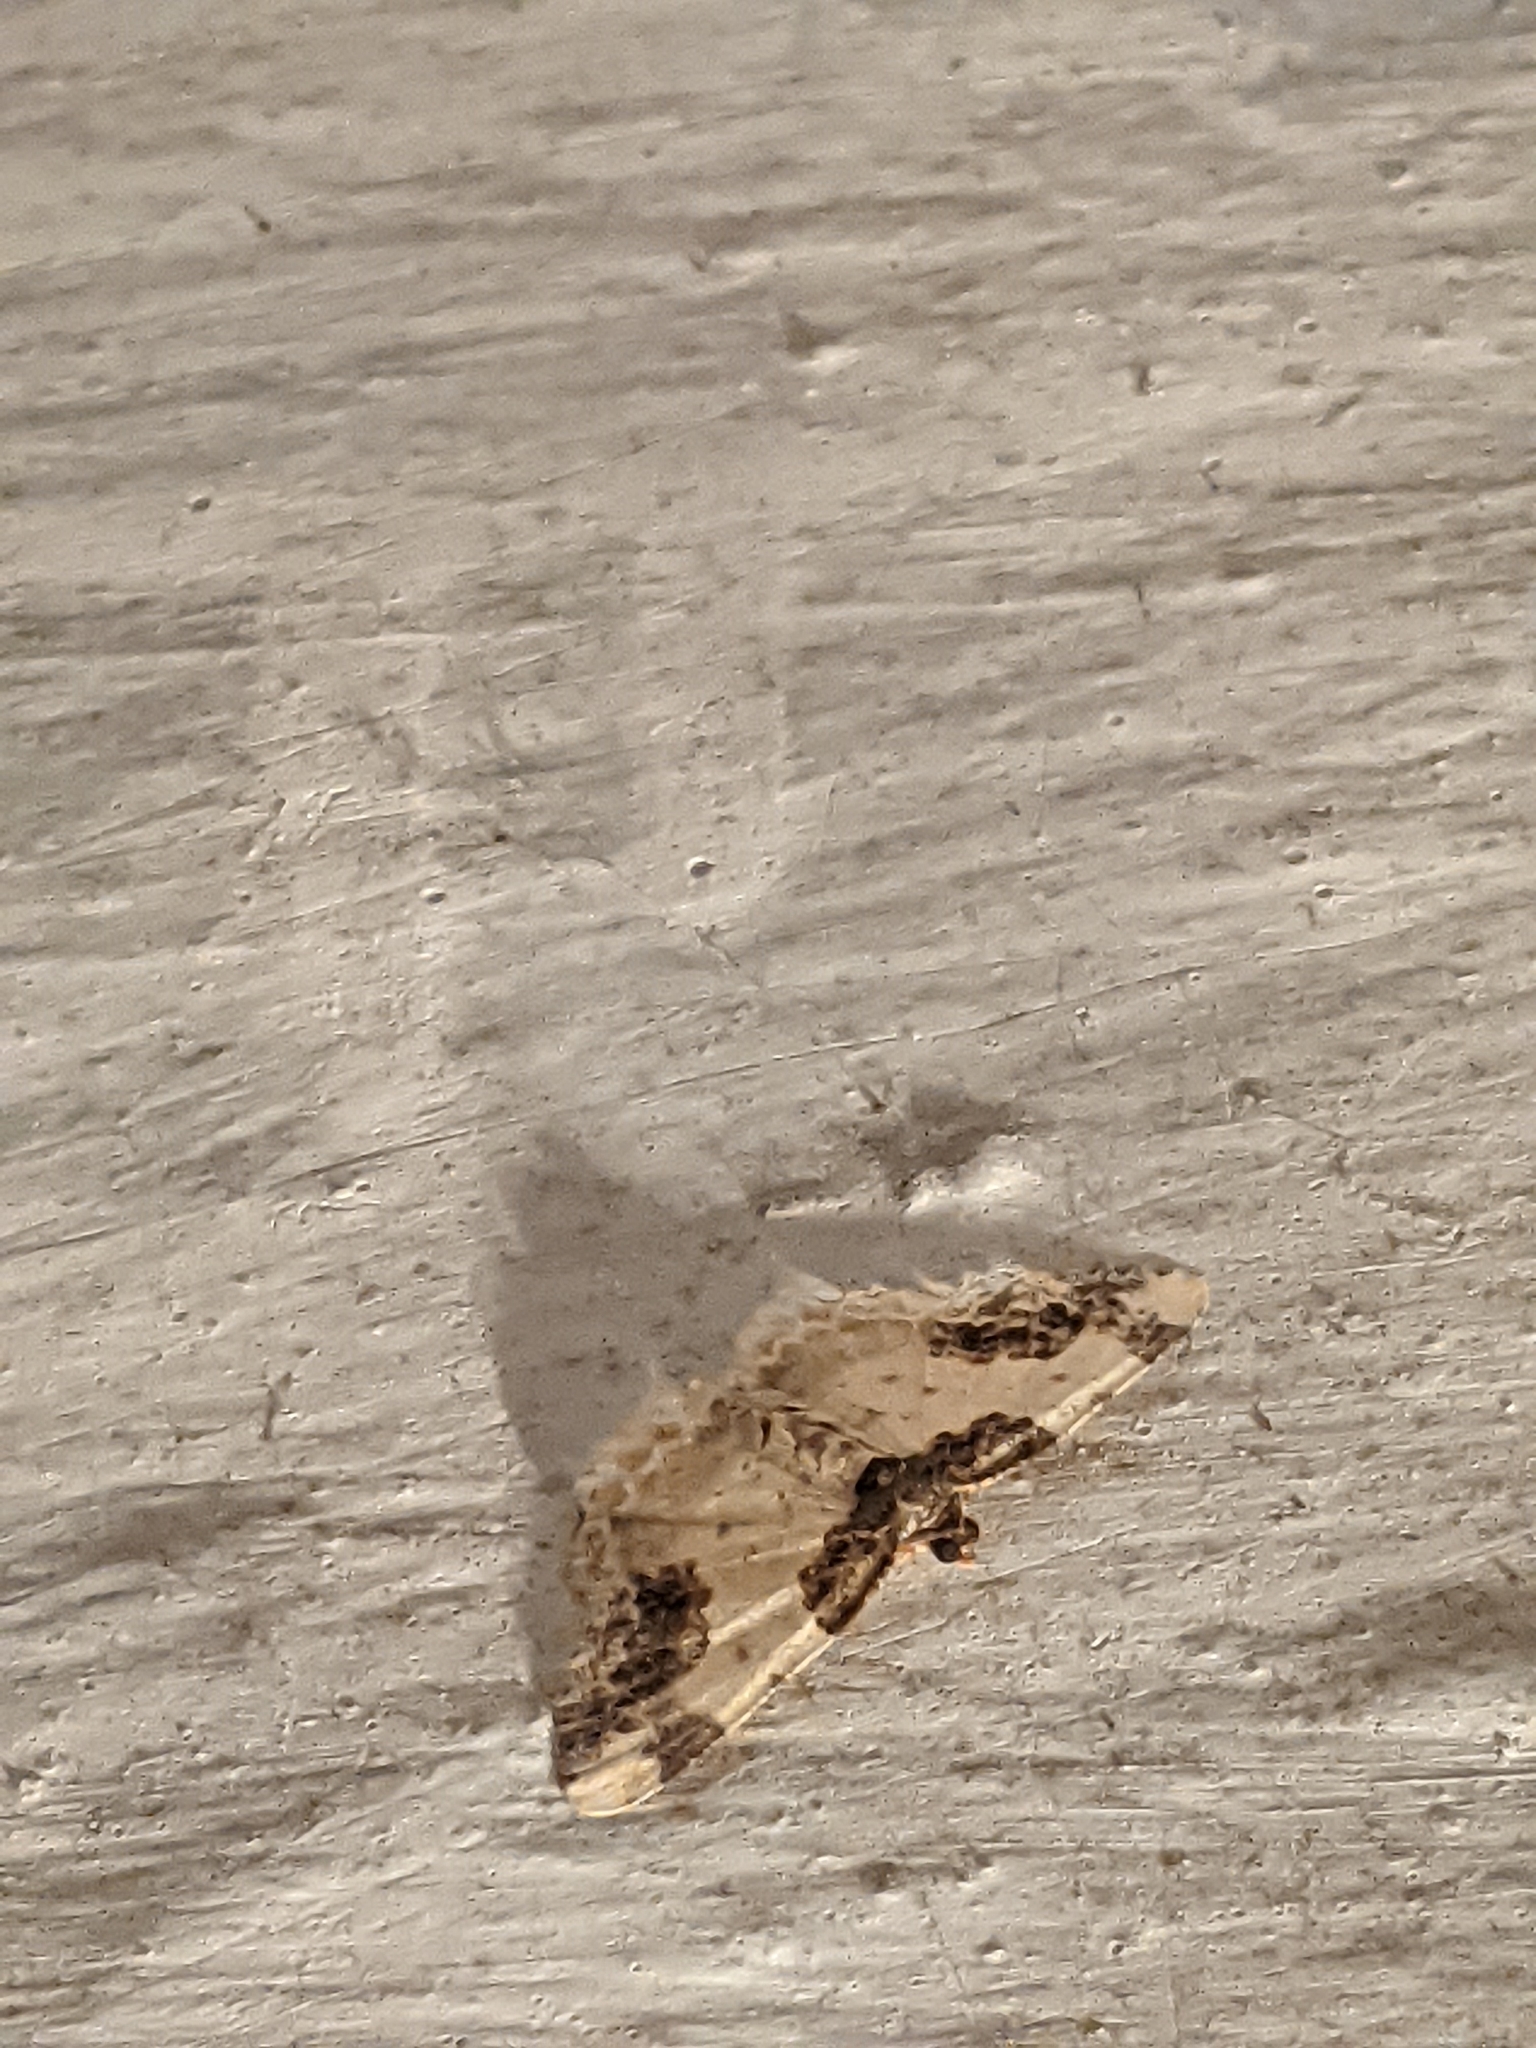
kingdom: Animalia
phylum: Arthropoda
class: Insecta
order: Lepidoptera
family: Geometridae
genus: Ligdia
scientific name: Ligdia adustata
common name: Scorched carpet
